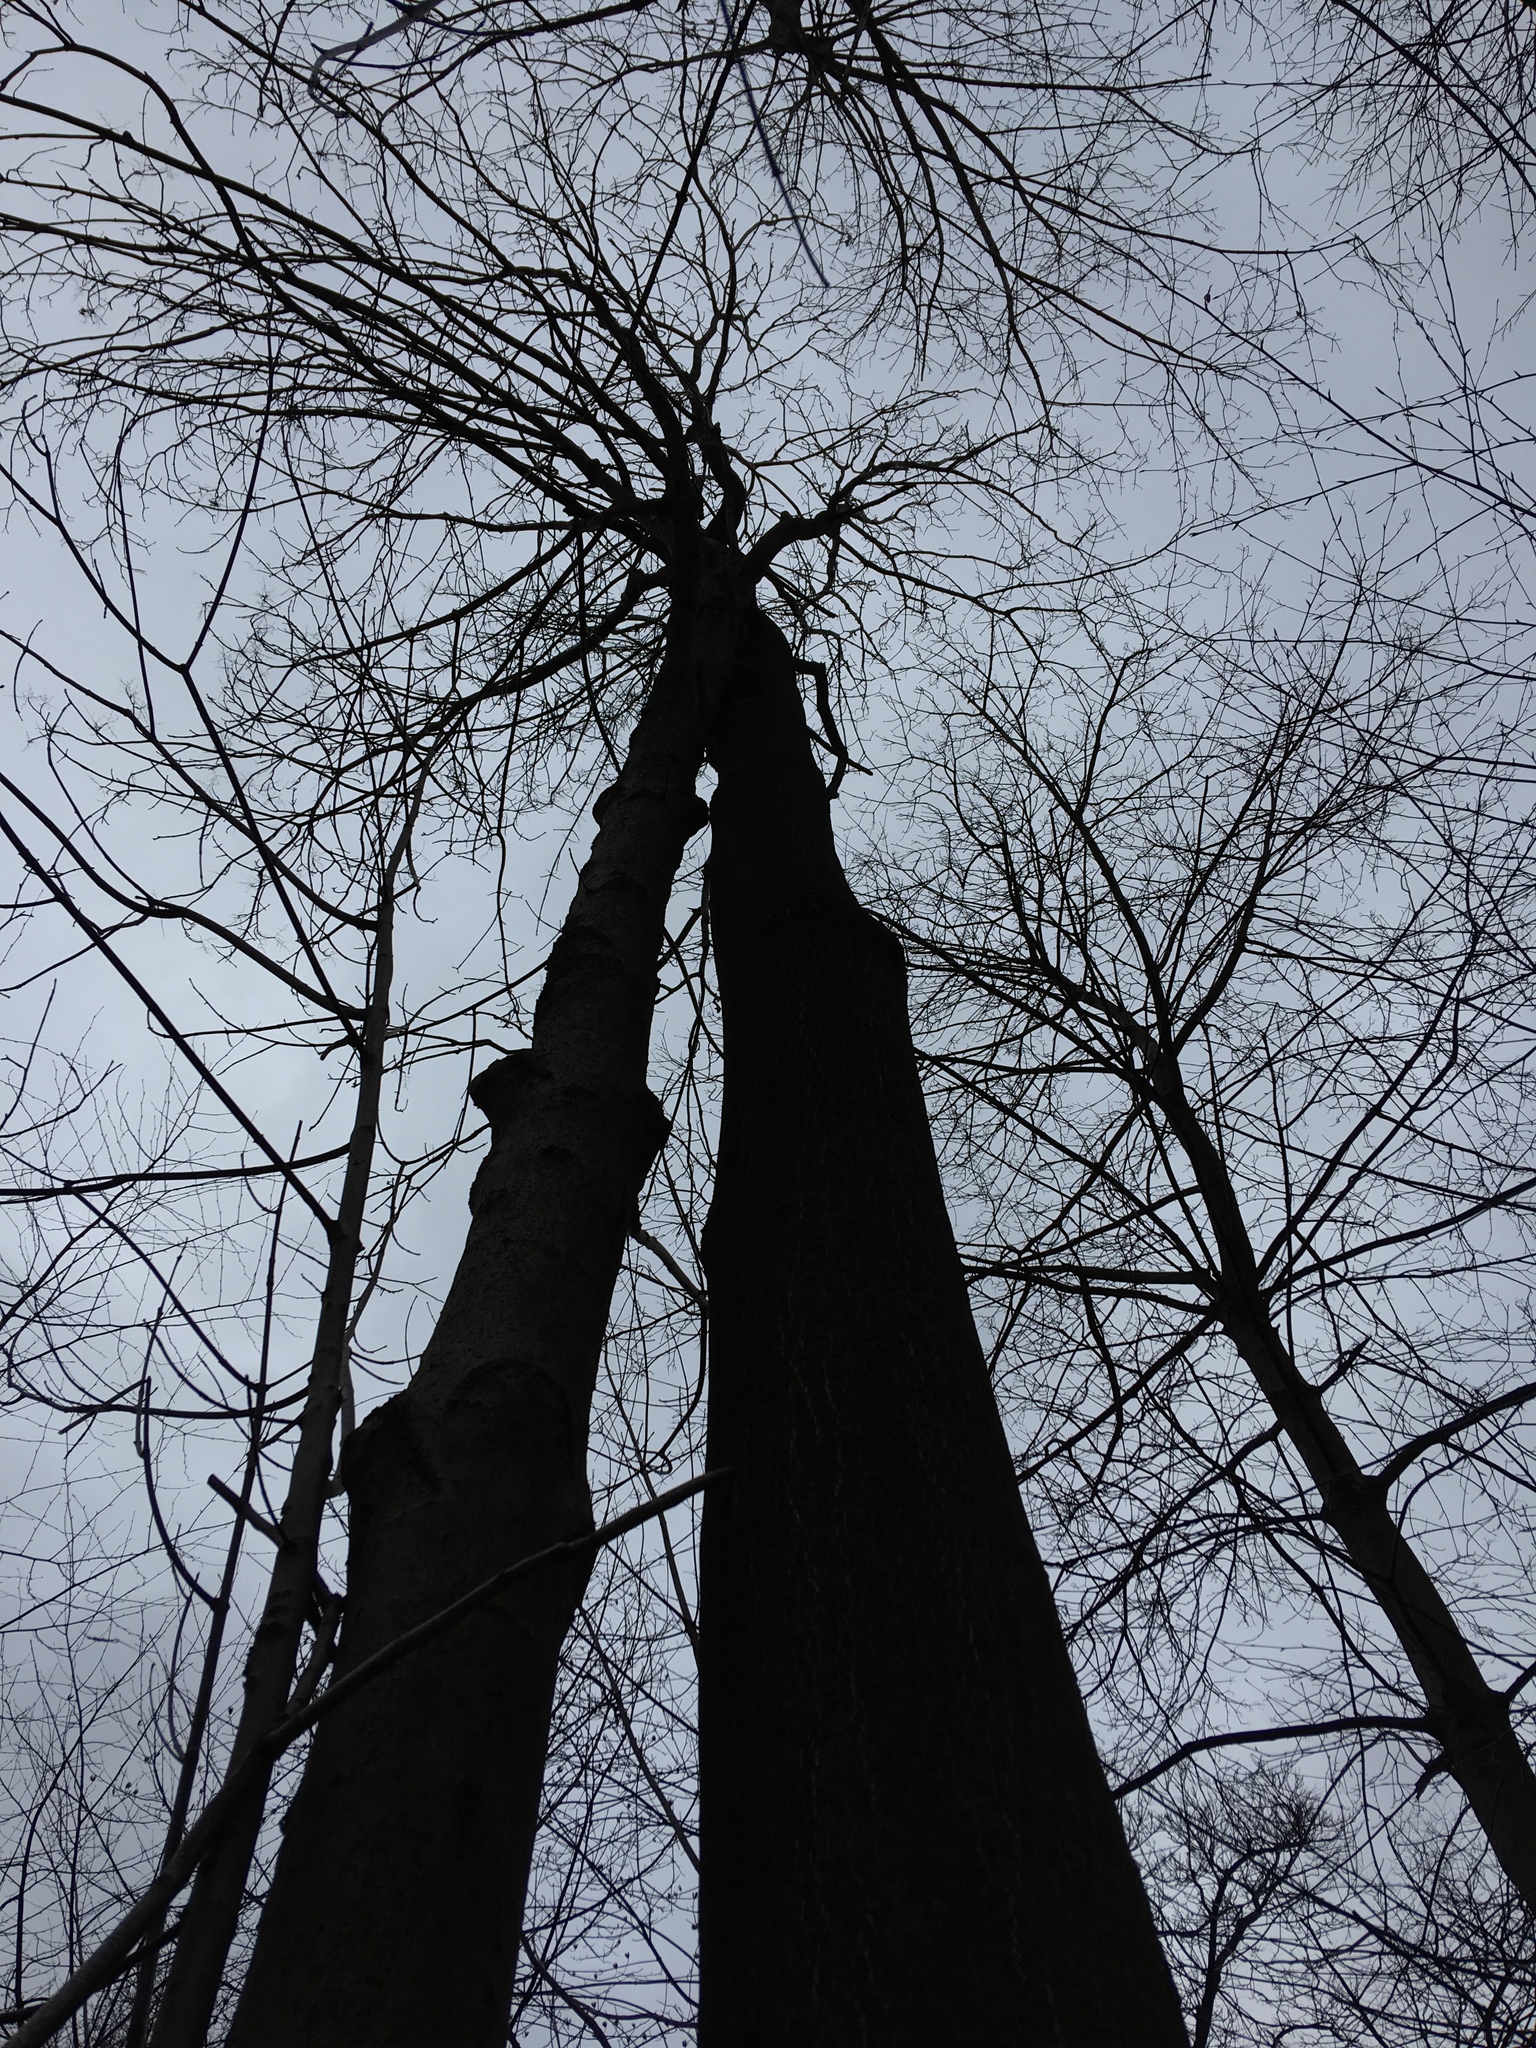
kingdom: Plantae
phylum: Tracheophyta
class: Magnoliopsida
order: Sapindales
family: Simaroubaceae
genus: Ailanthus
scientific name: Ailanthus altissima
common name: Tree-of-heaven
